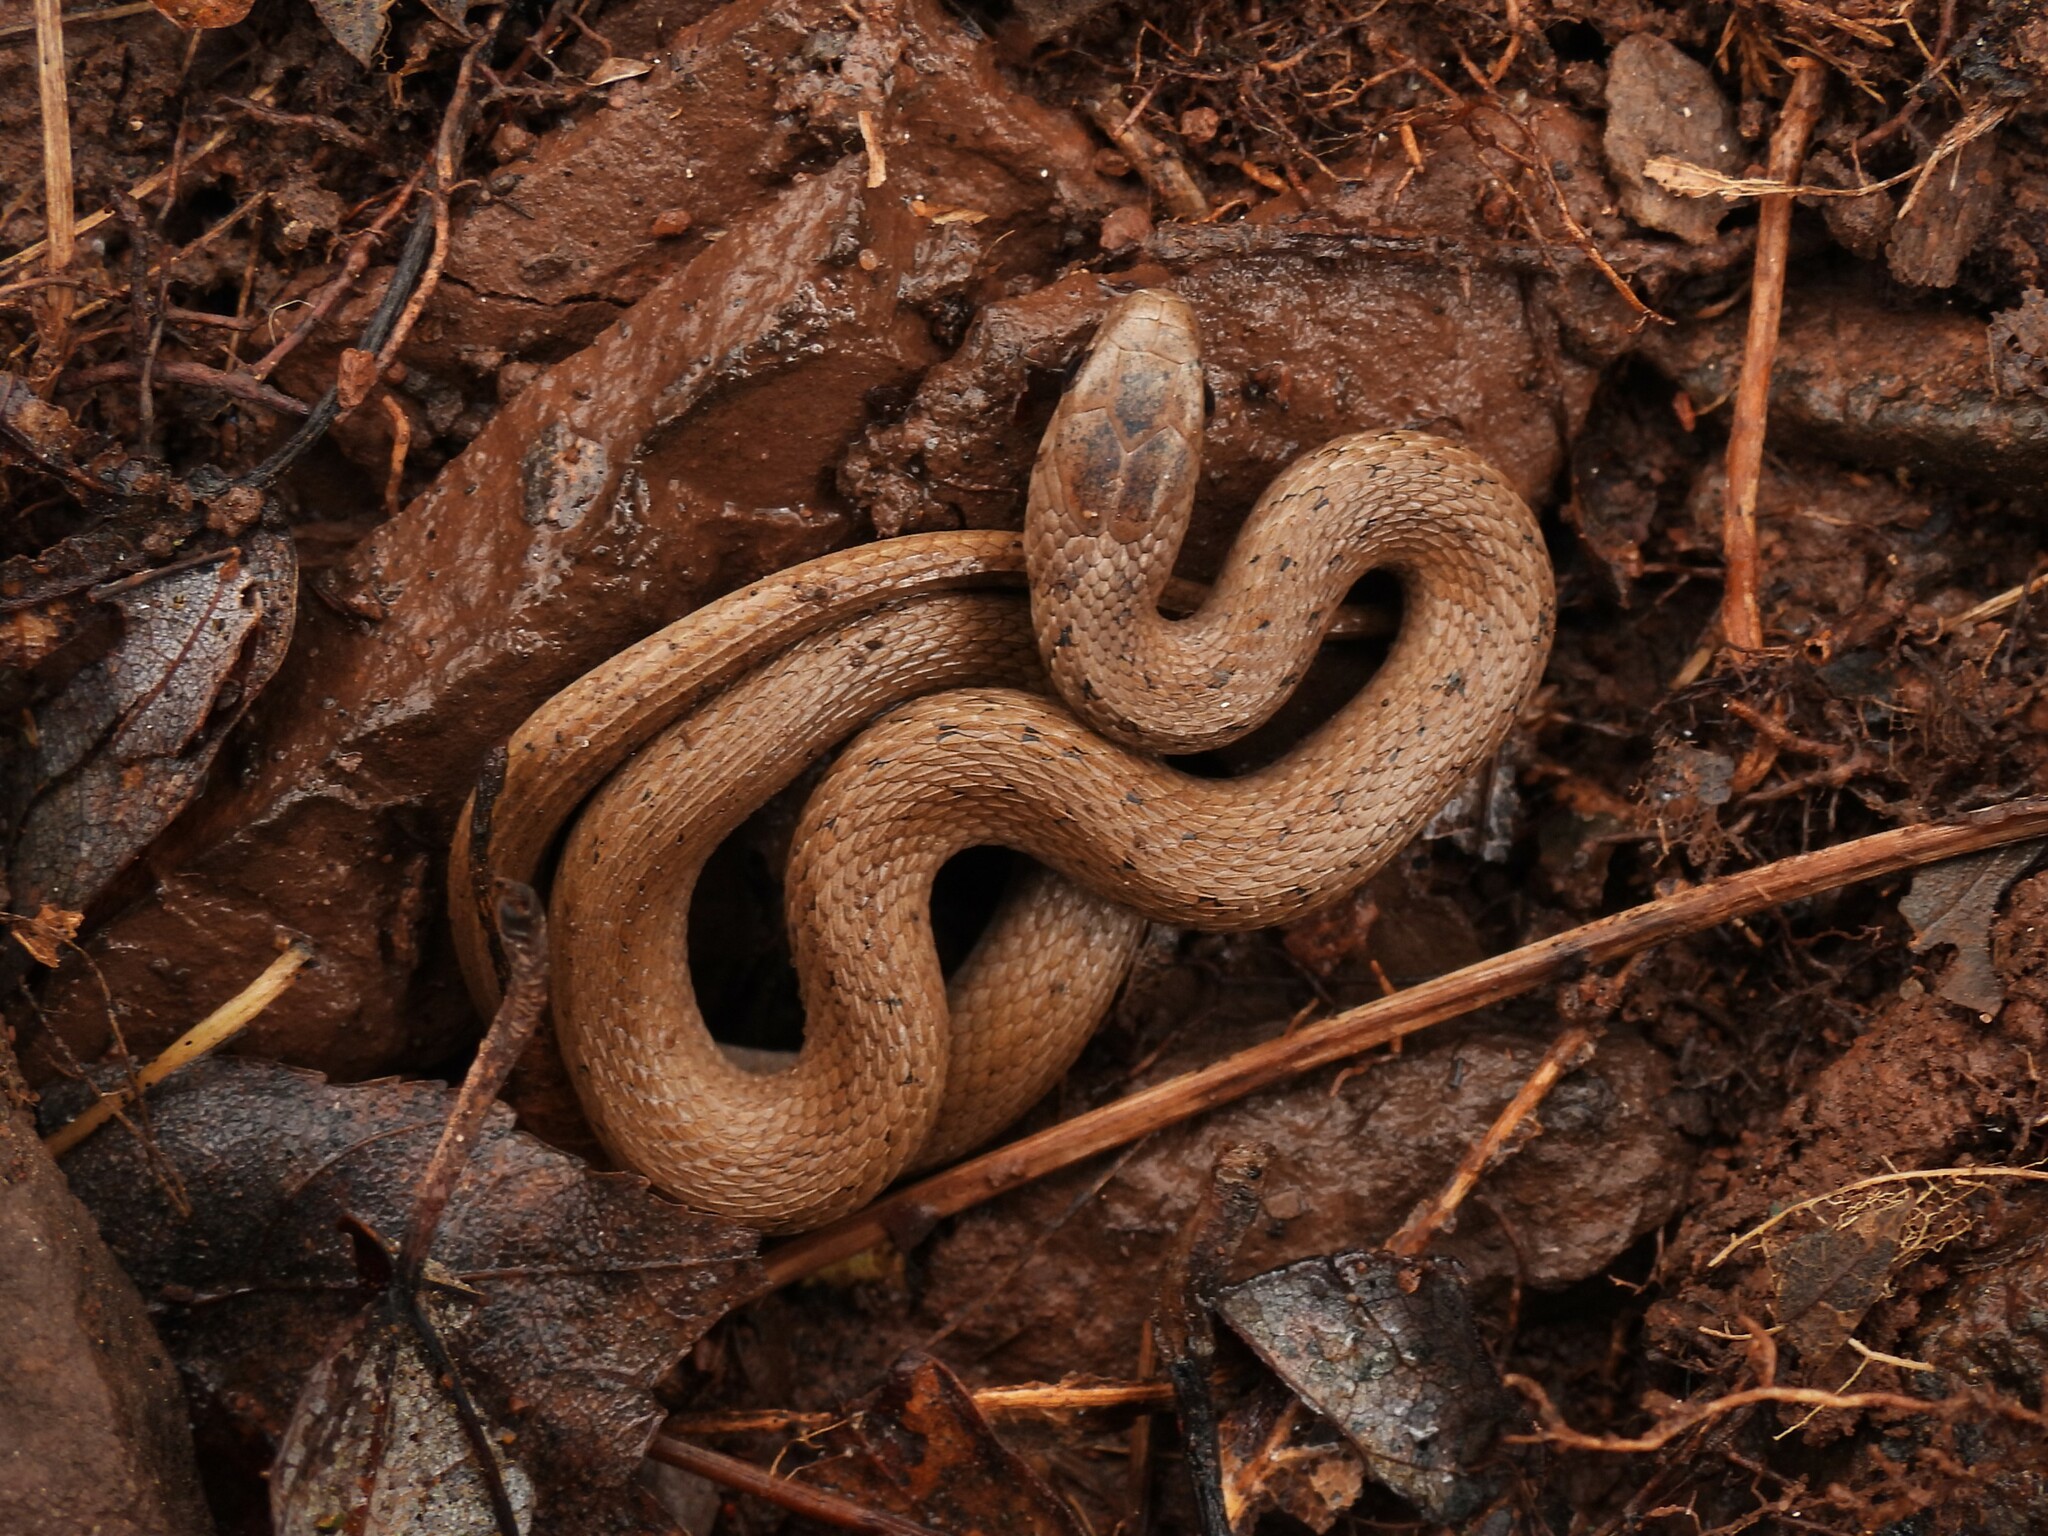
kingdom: Animalia
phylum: Chordata
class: Squamata
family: Colubridae
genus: Storeria
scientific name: Storeria dekayi
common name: (dekay’s) brown snake
